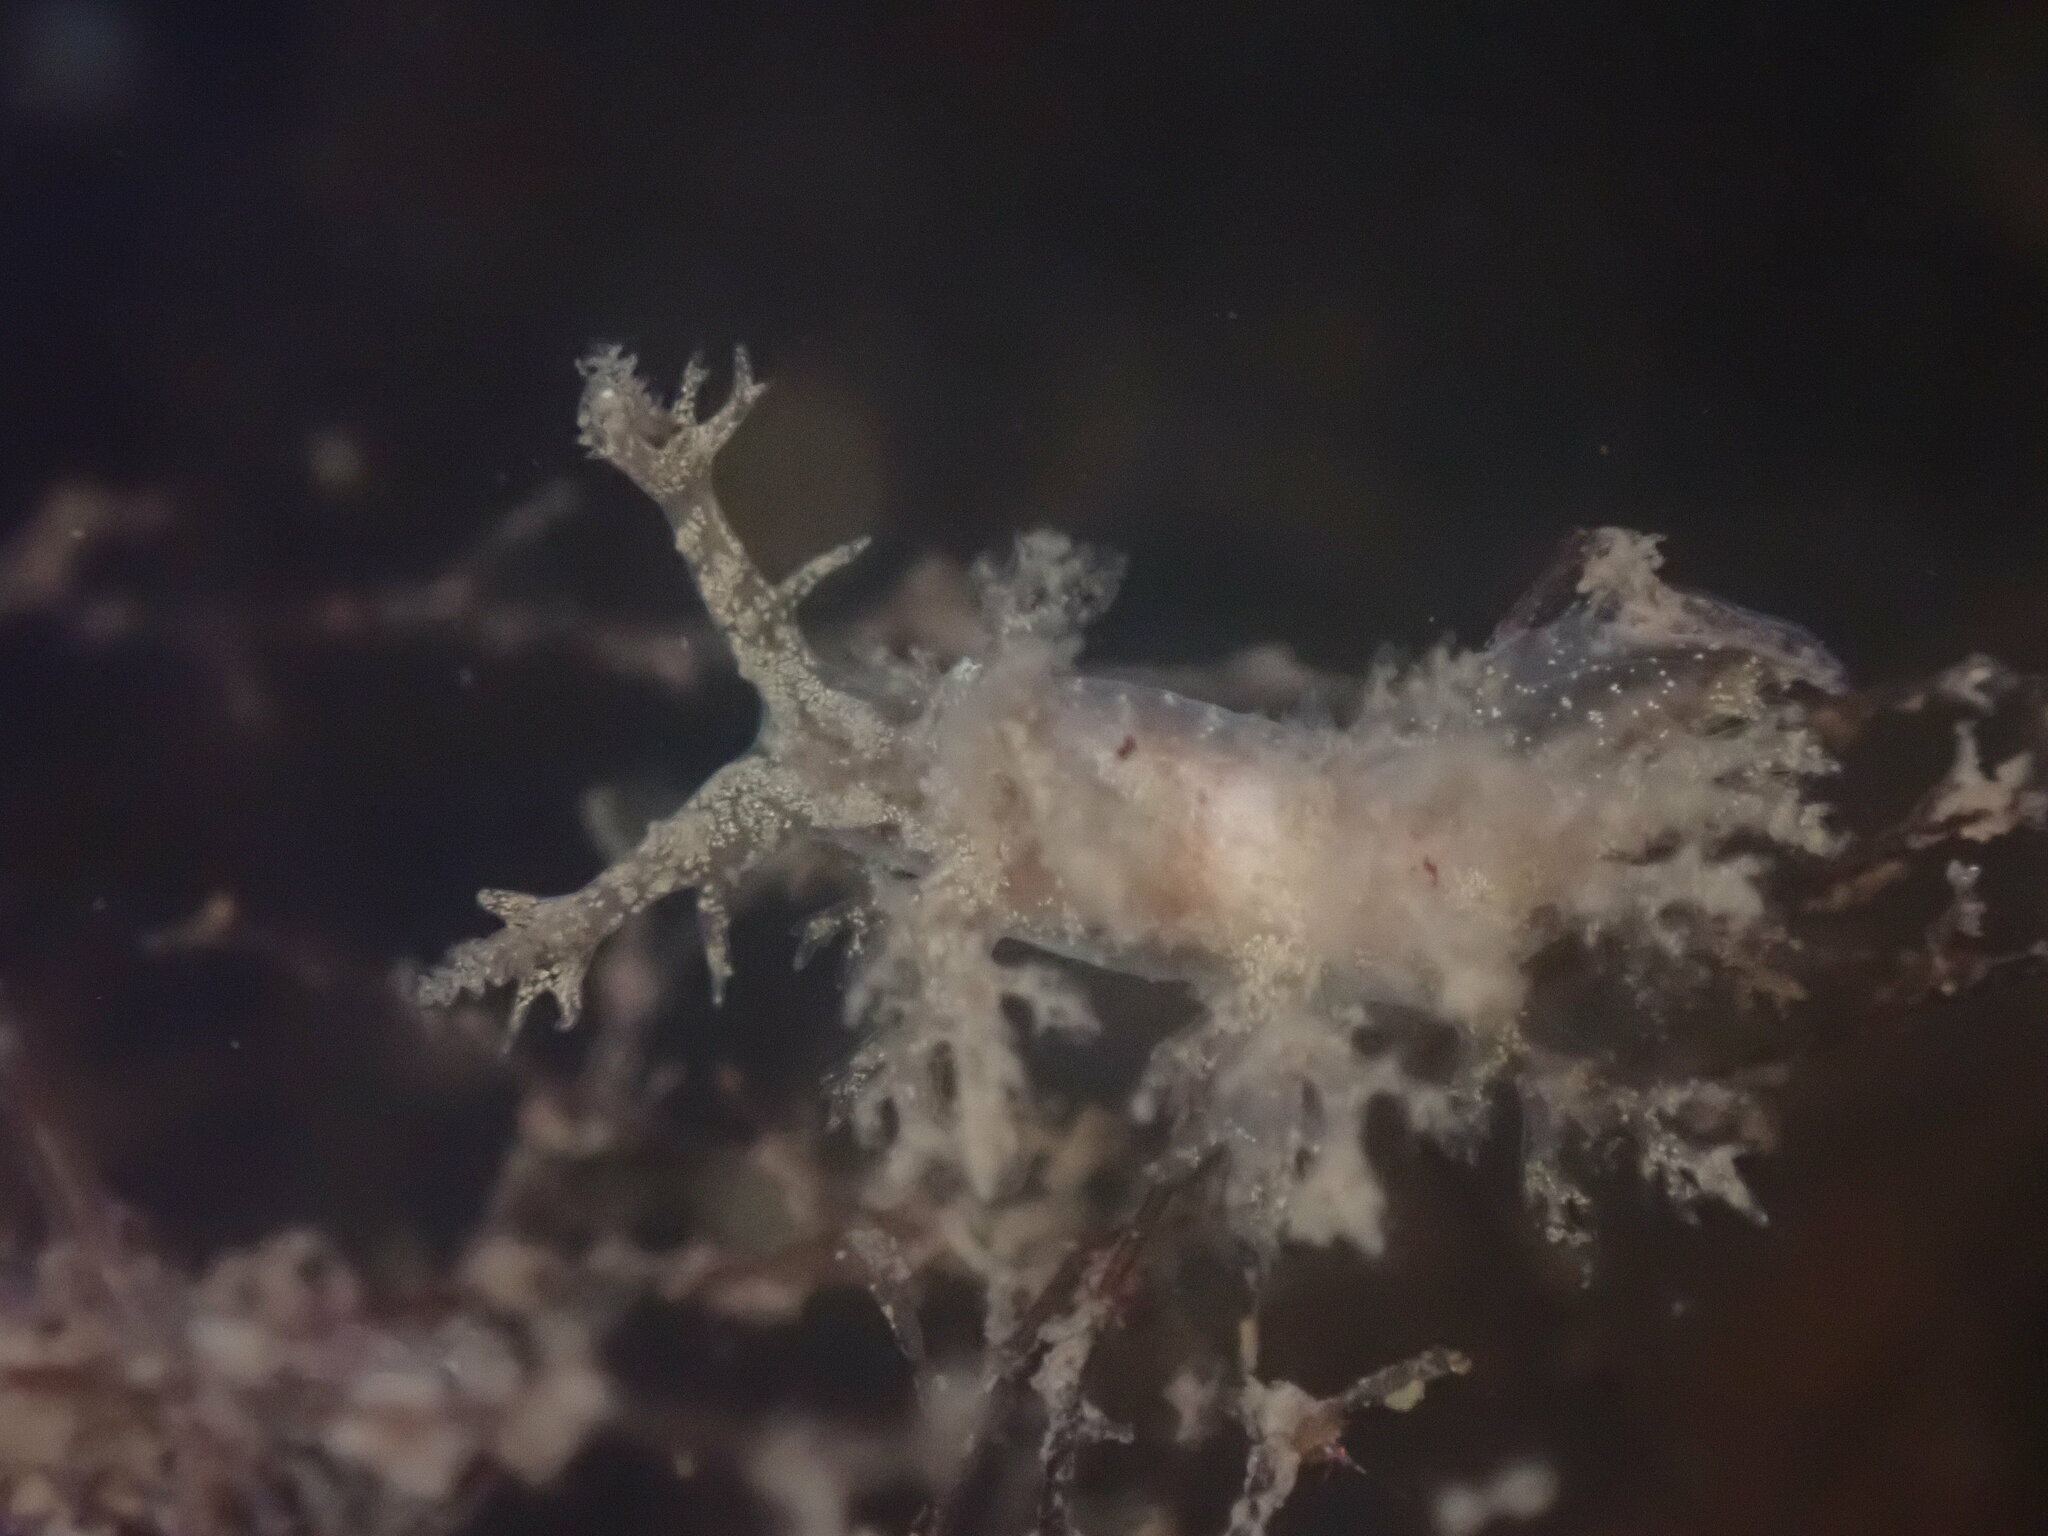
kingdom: Animalia
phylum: Mollusca
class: Gastropoda
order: Nudibranchia
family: Dendronotidae
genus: Dendronotus
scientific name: Dendronotus venustus
